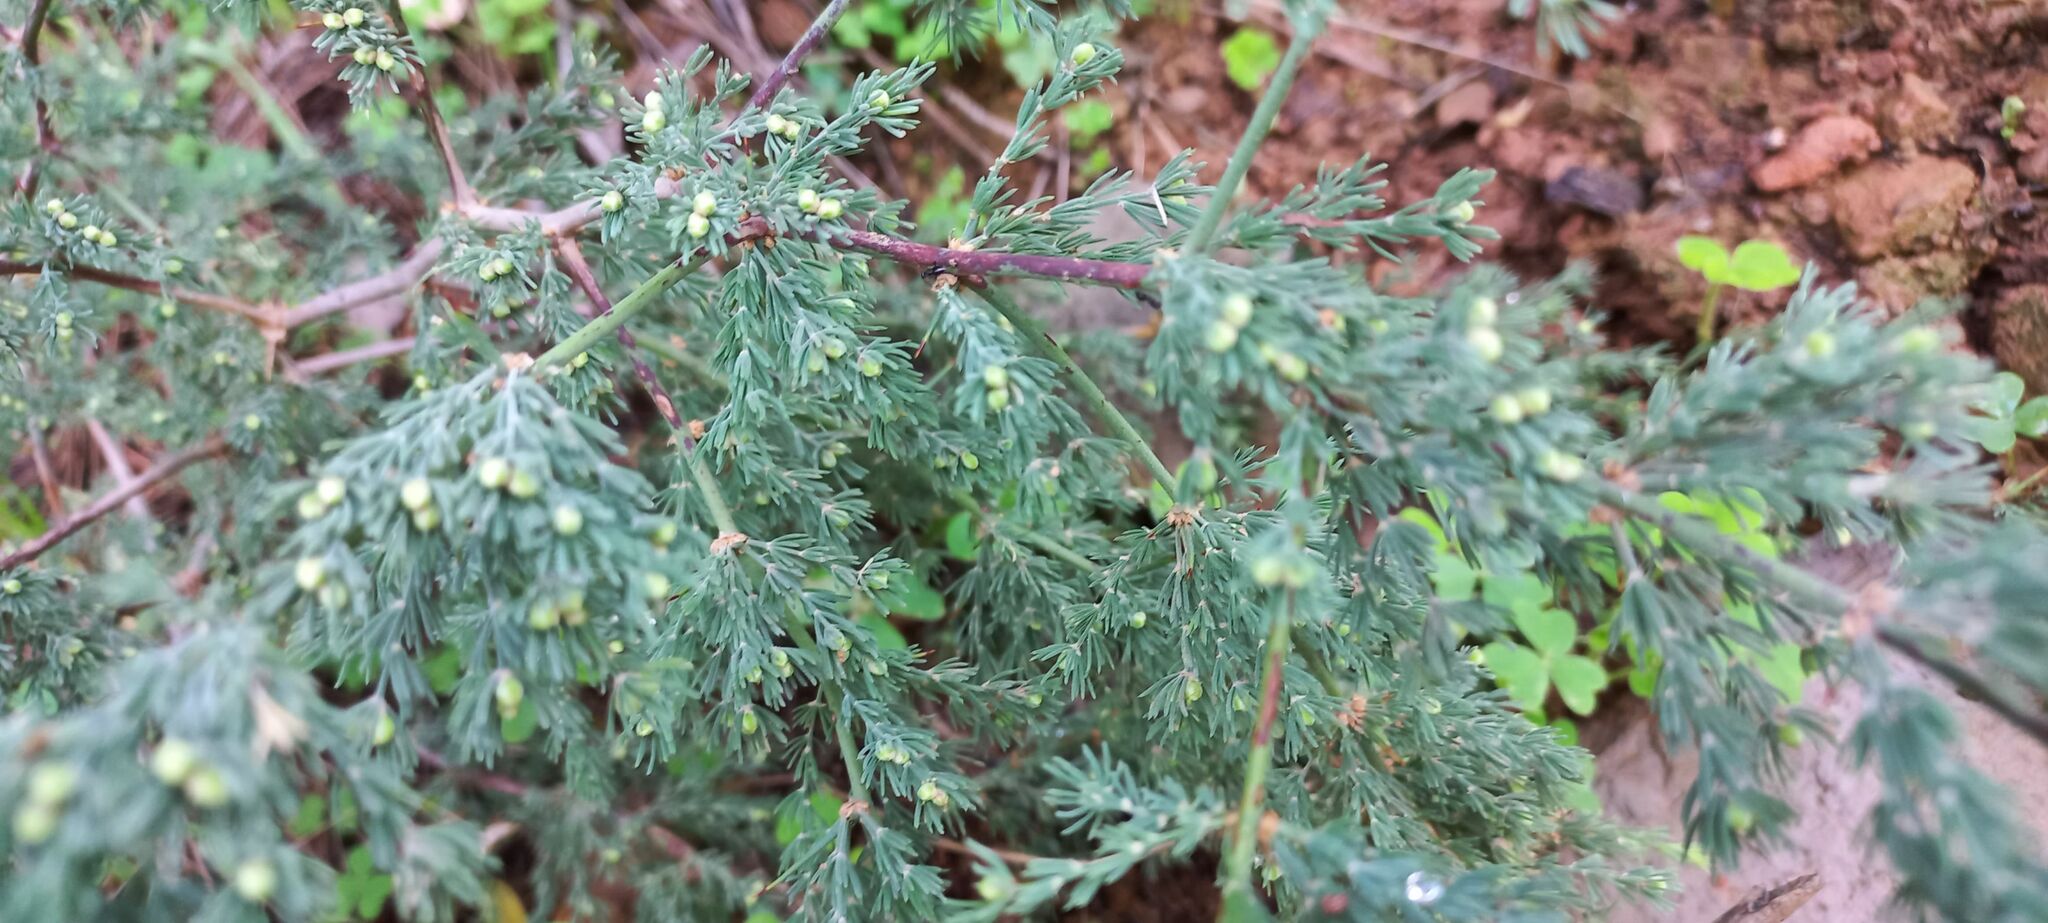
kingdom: Plantae
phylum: Tracheophyta
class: Liliopsida
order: Asparagales
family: Asparagaceae
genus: Asparagus
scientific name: Asparagus capensis
